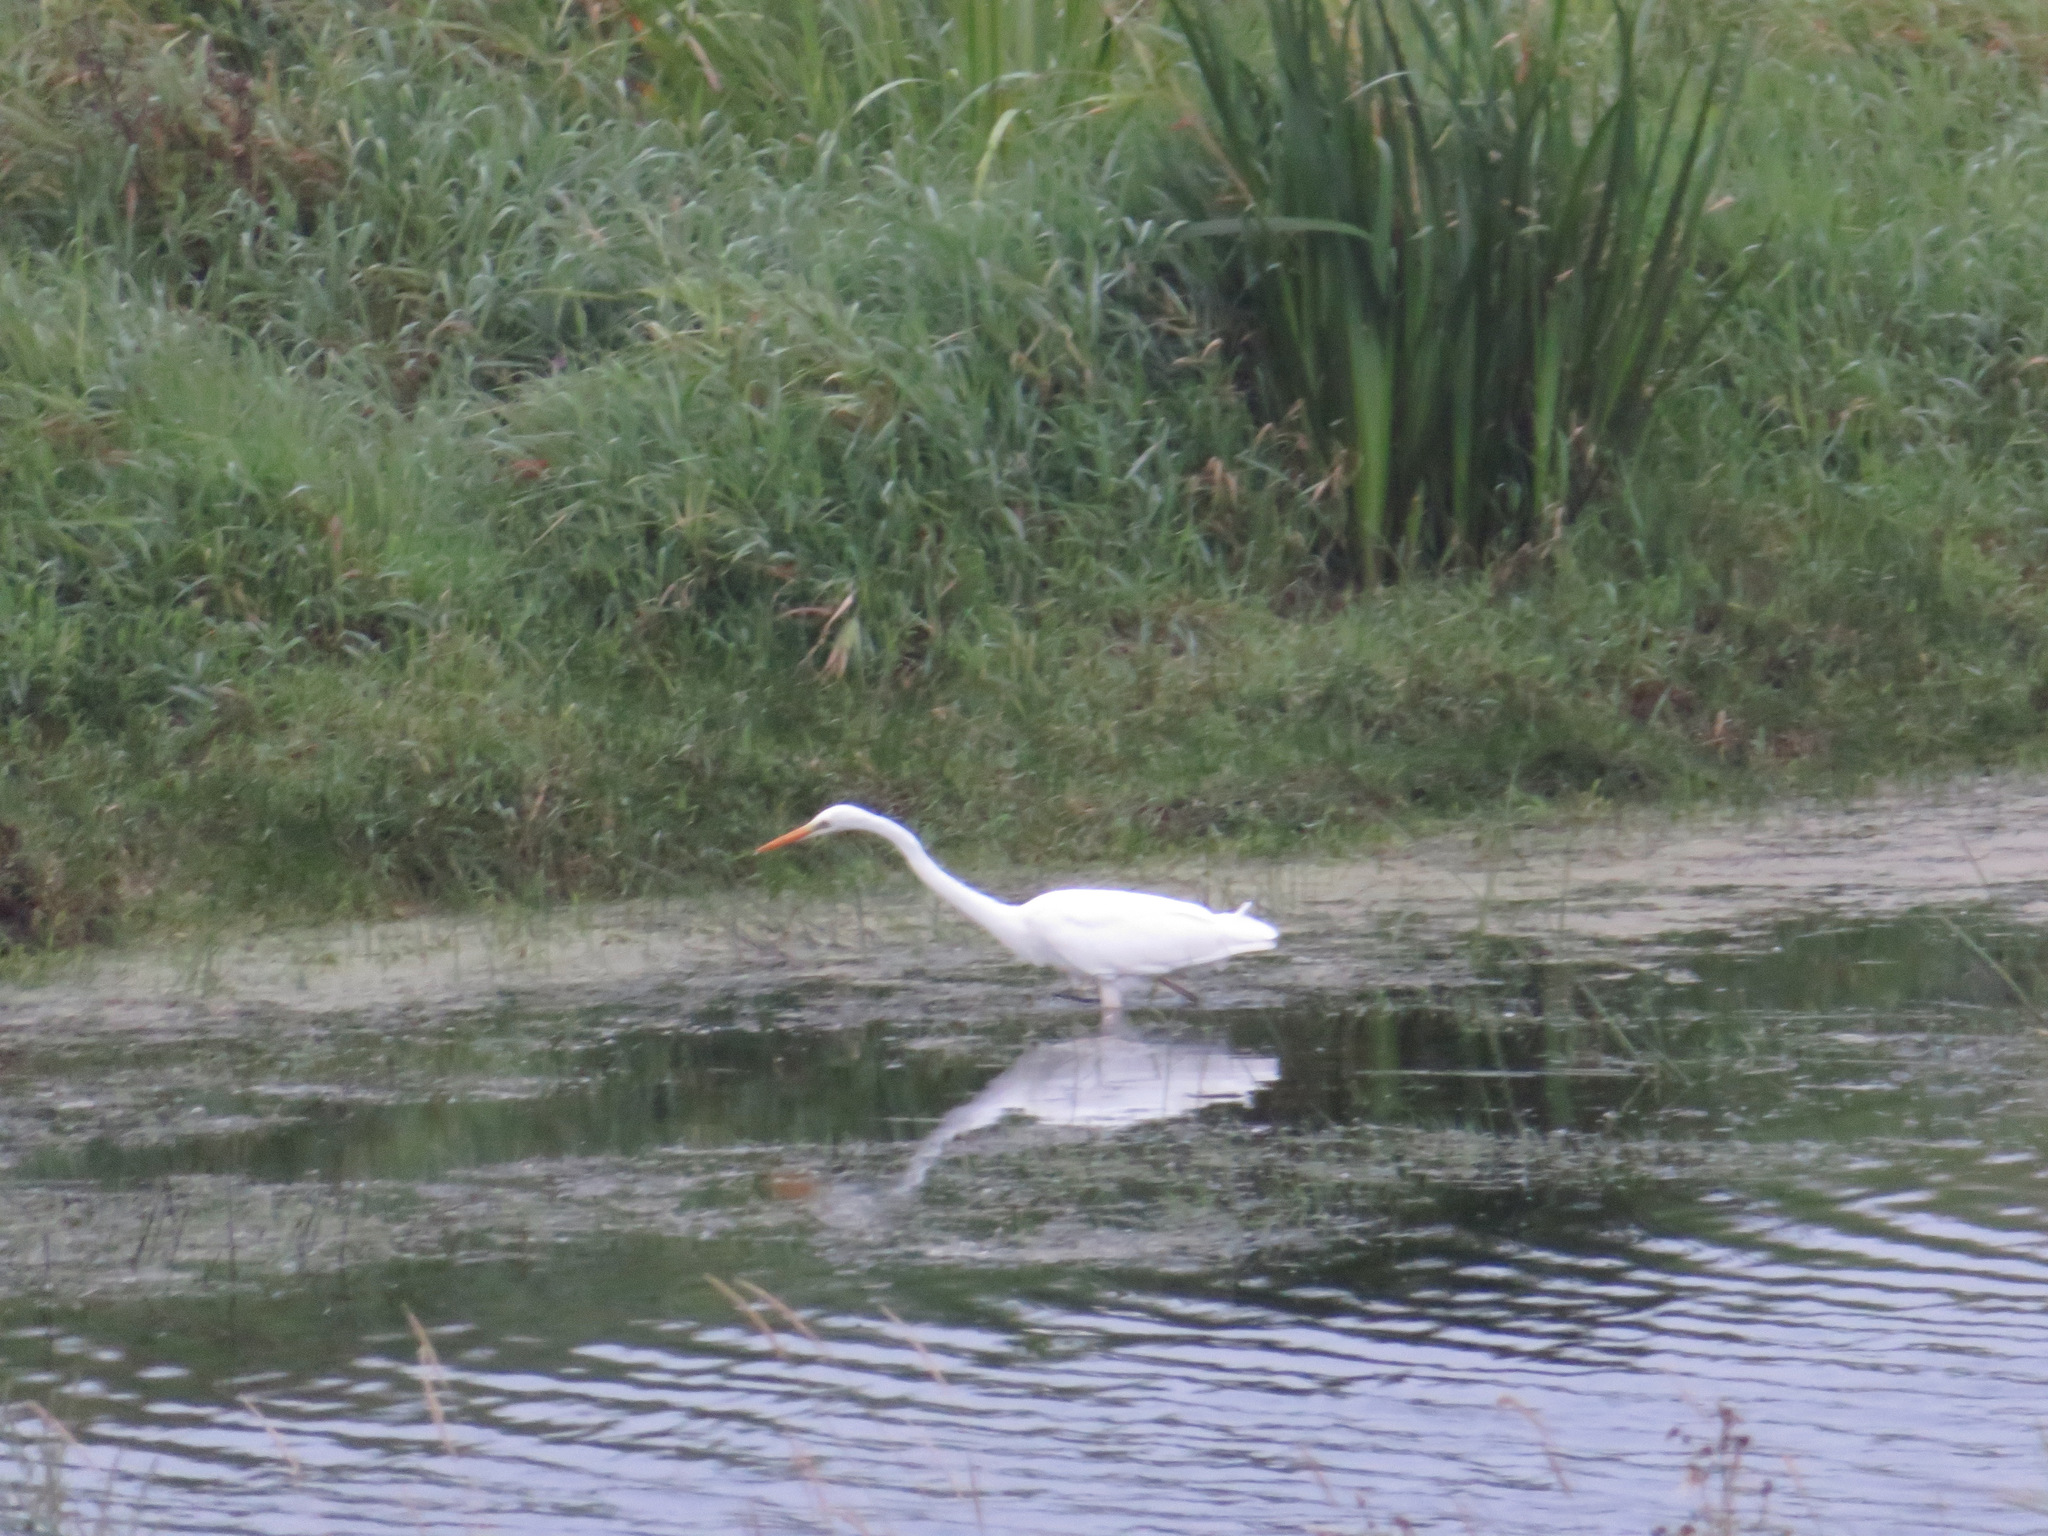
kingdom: Animalia
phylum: Chordata
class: Aves
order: Pelecaniformes
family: Ardeidae
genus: Ardea
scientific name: Ardea alba
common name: Great egret
